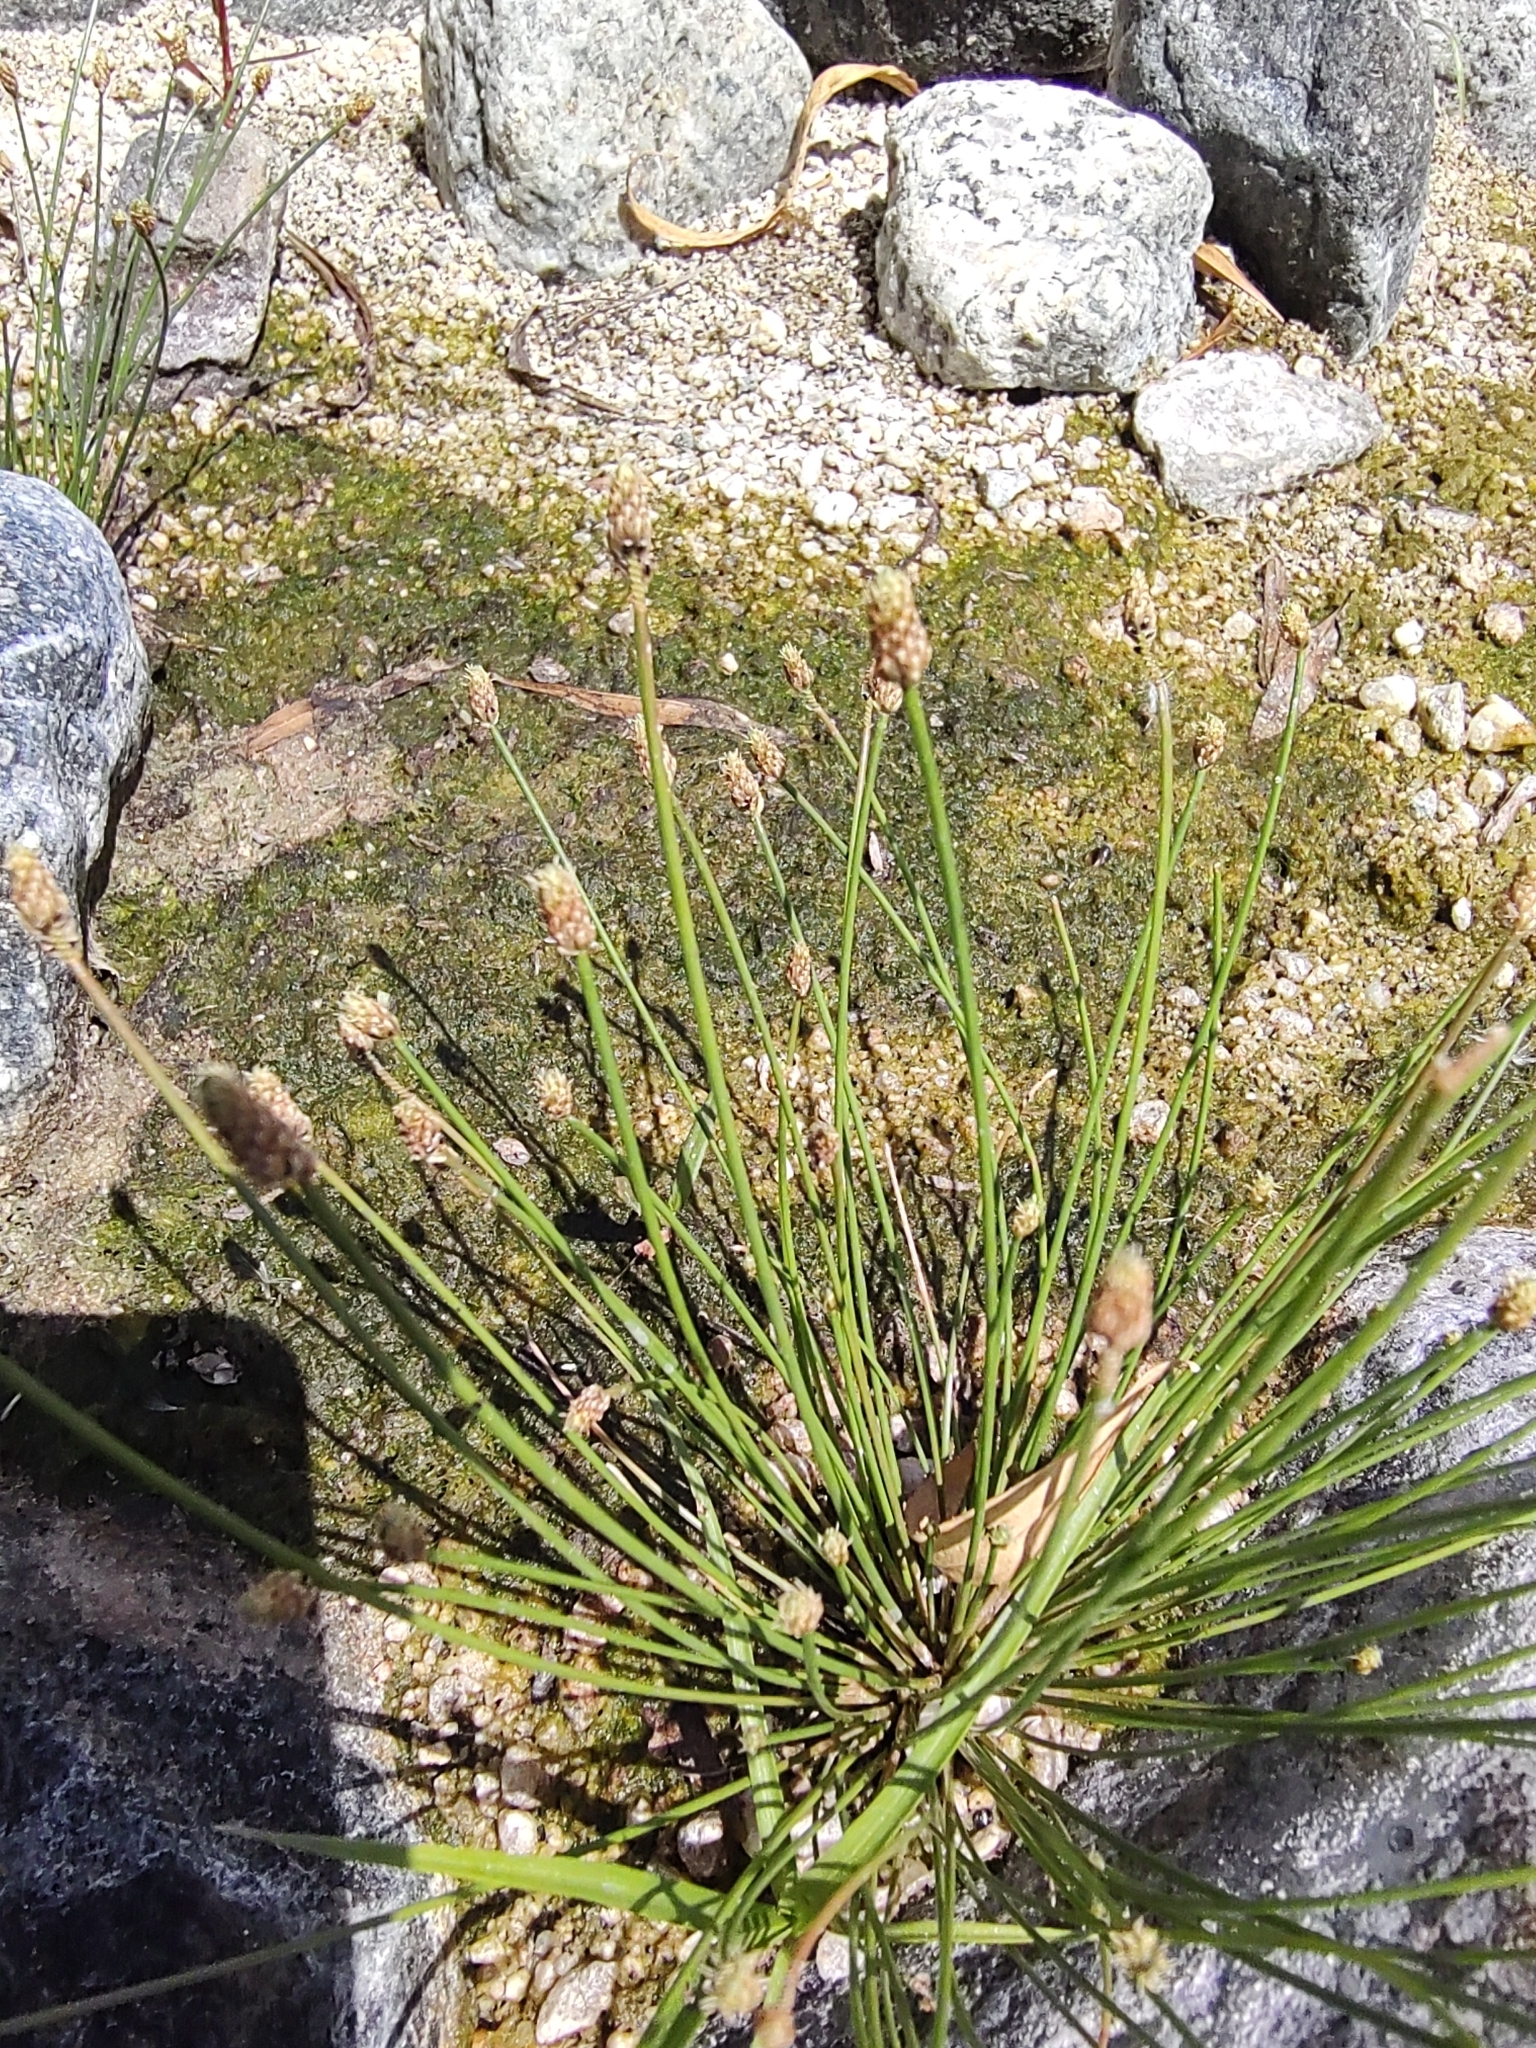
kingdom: Plantae
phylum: Tracheophyta
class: Liliopsida
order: Poales
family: Cyperaceae
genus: Eleocharis
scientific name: Eleocharis geniculata
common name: Canada spikesedge
